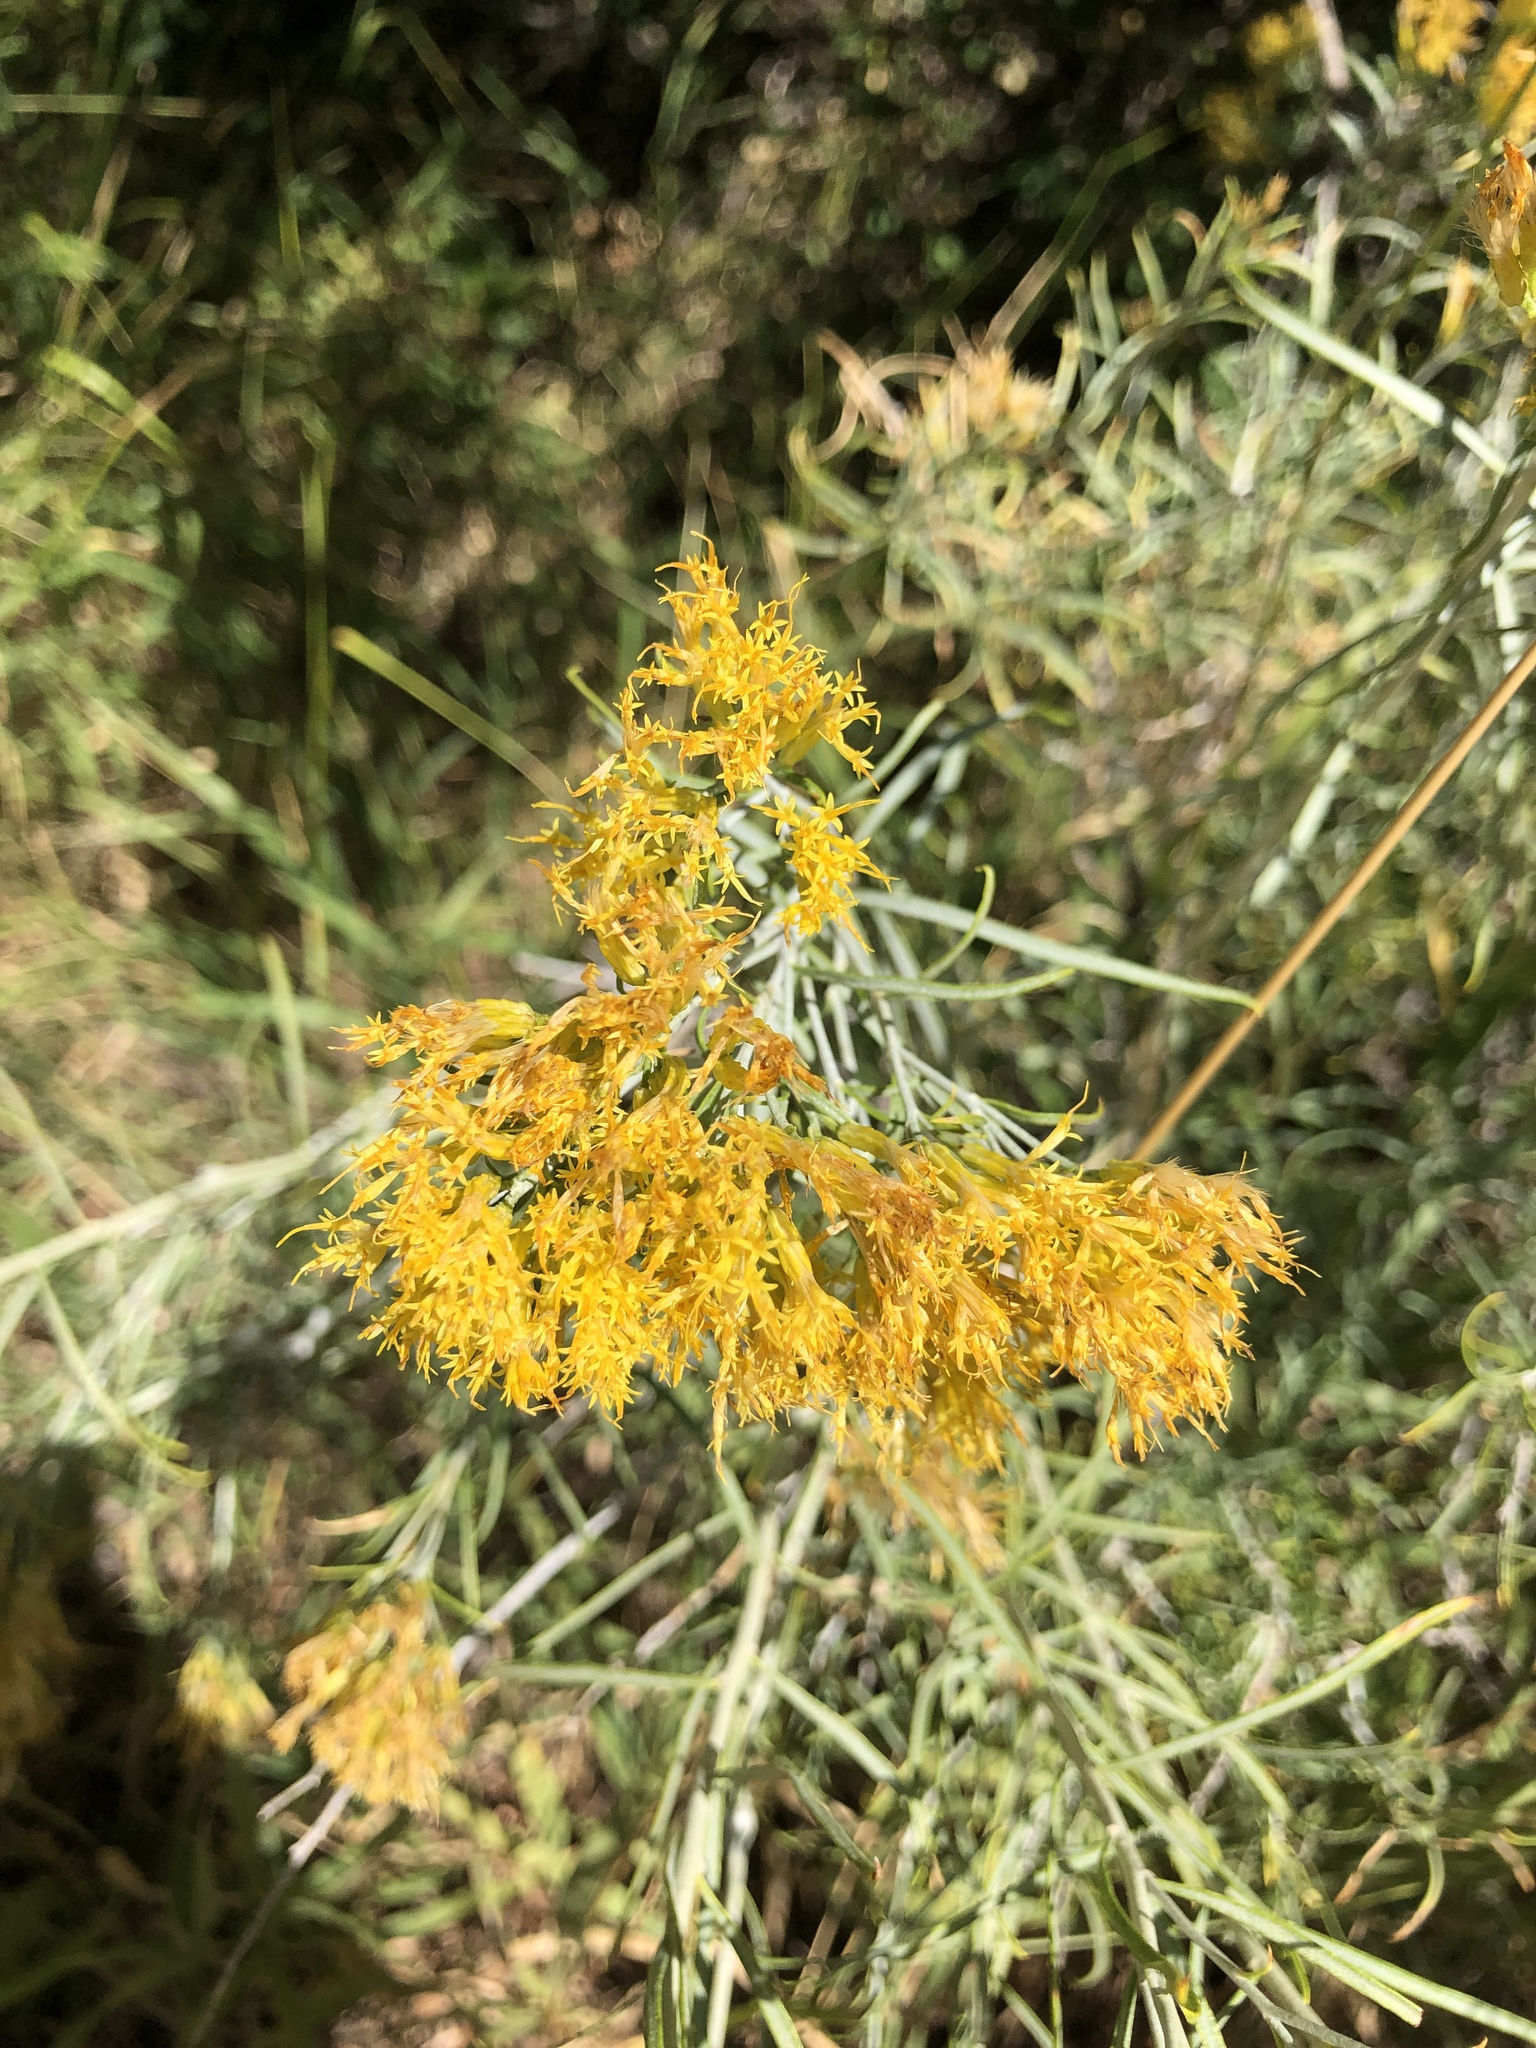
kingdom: Plantae
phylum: Tracheophyta
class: Magnoliopsida
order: Asterales
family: Asteraceae
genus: Ericameria
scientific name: Ericameria nauseosa
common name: Rubber rabbitbrush
